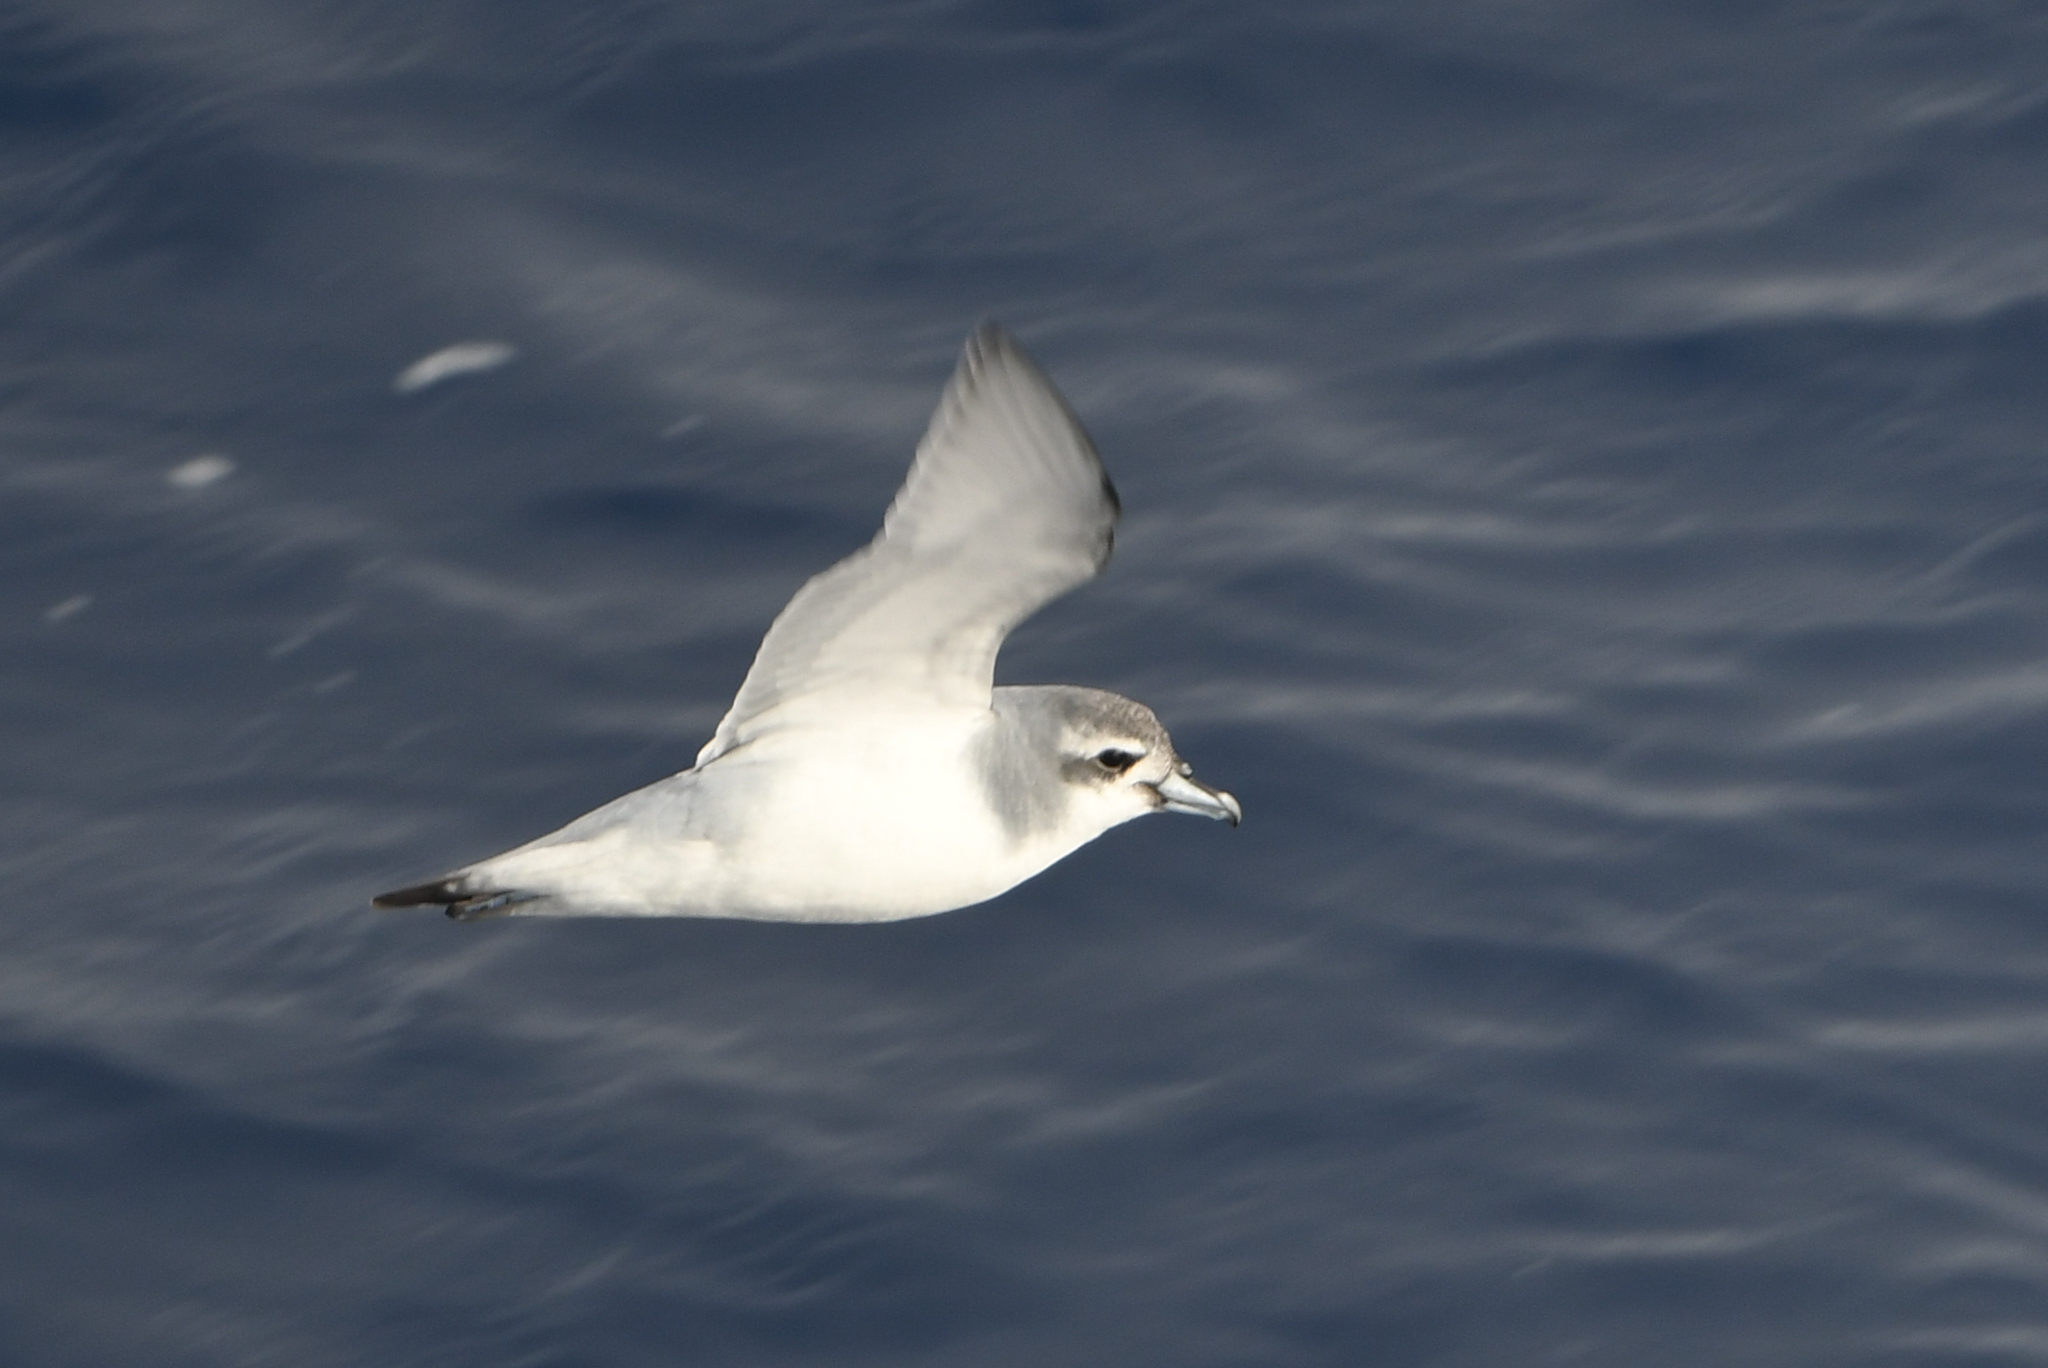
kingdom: Animalia
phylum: Chordata
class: Aves
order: Procellariiformes
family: Procellariidae
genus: Pachyptila
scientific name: Pachyptila desolata
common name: Antarctic prion
